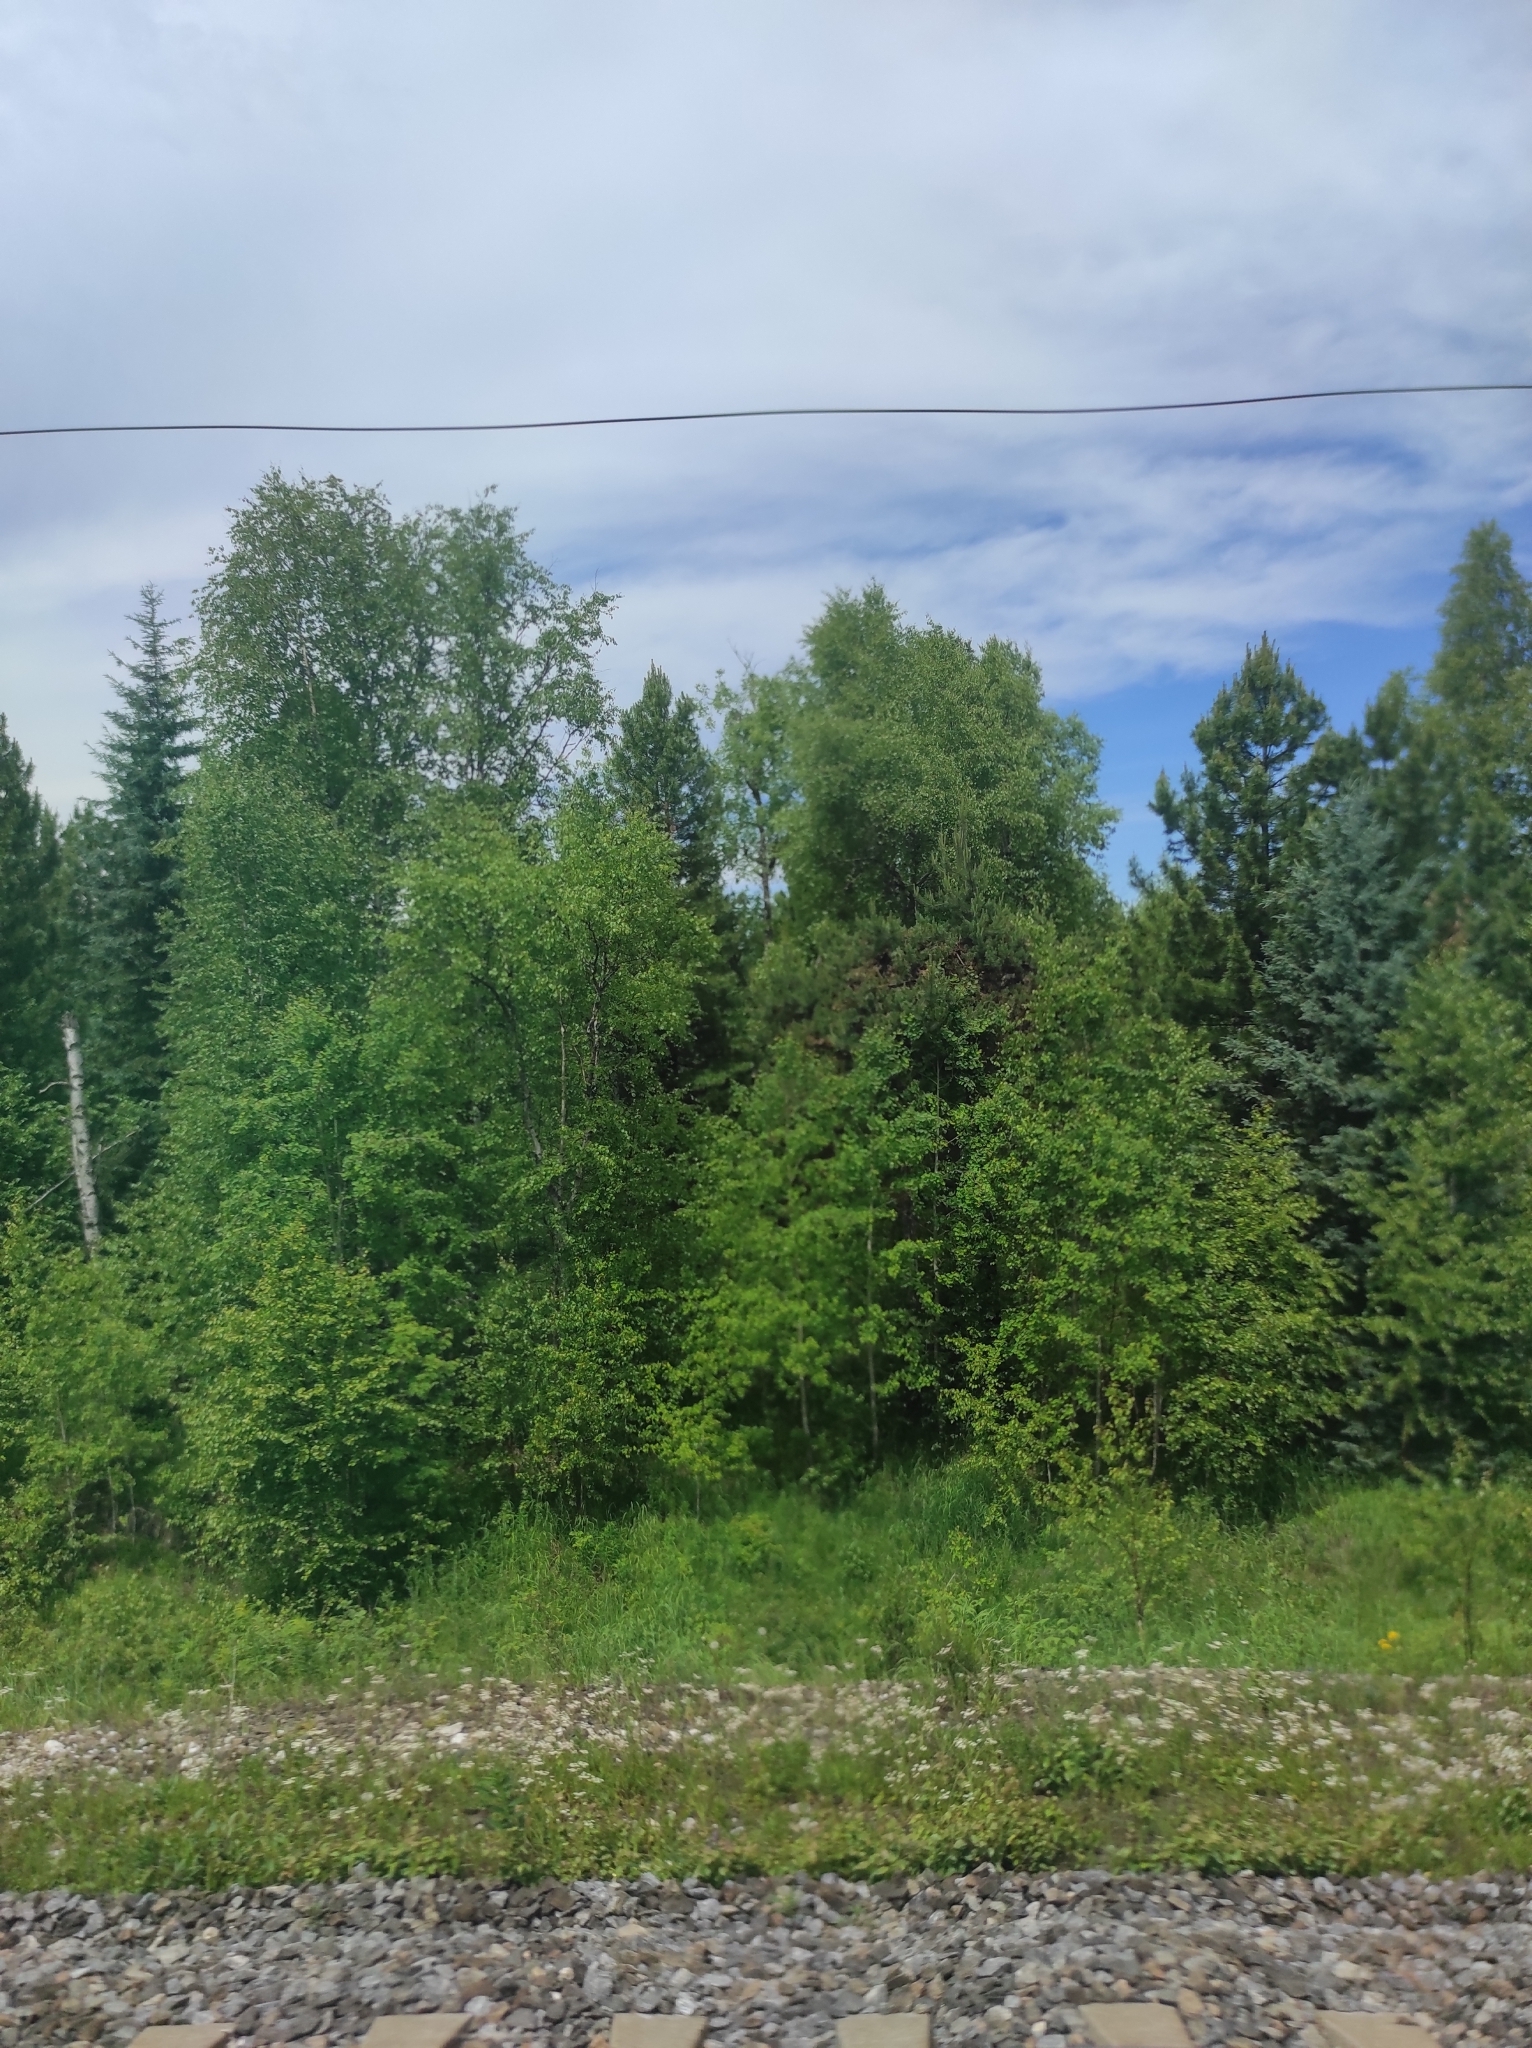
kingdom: Plantae
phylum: Tracheophyta
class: Pinopsida
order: Pinales
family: Pinaceae
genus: Pinus
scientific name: Pinus sylvestris
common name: Scots pine
